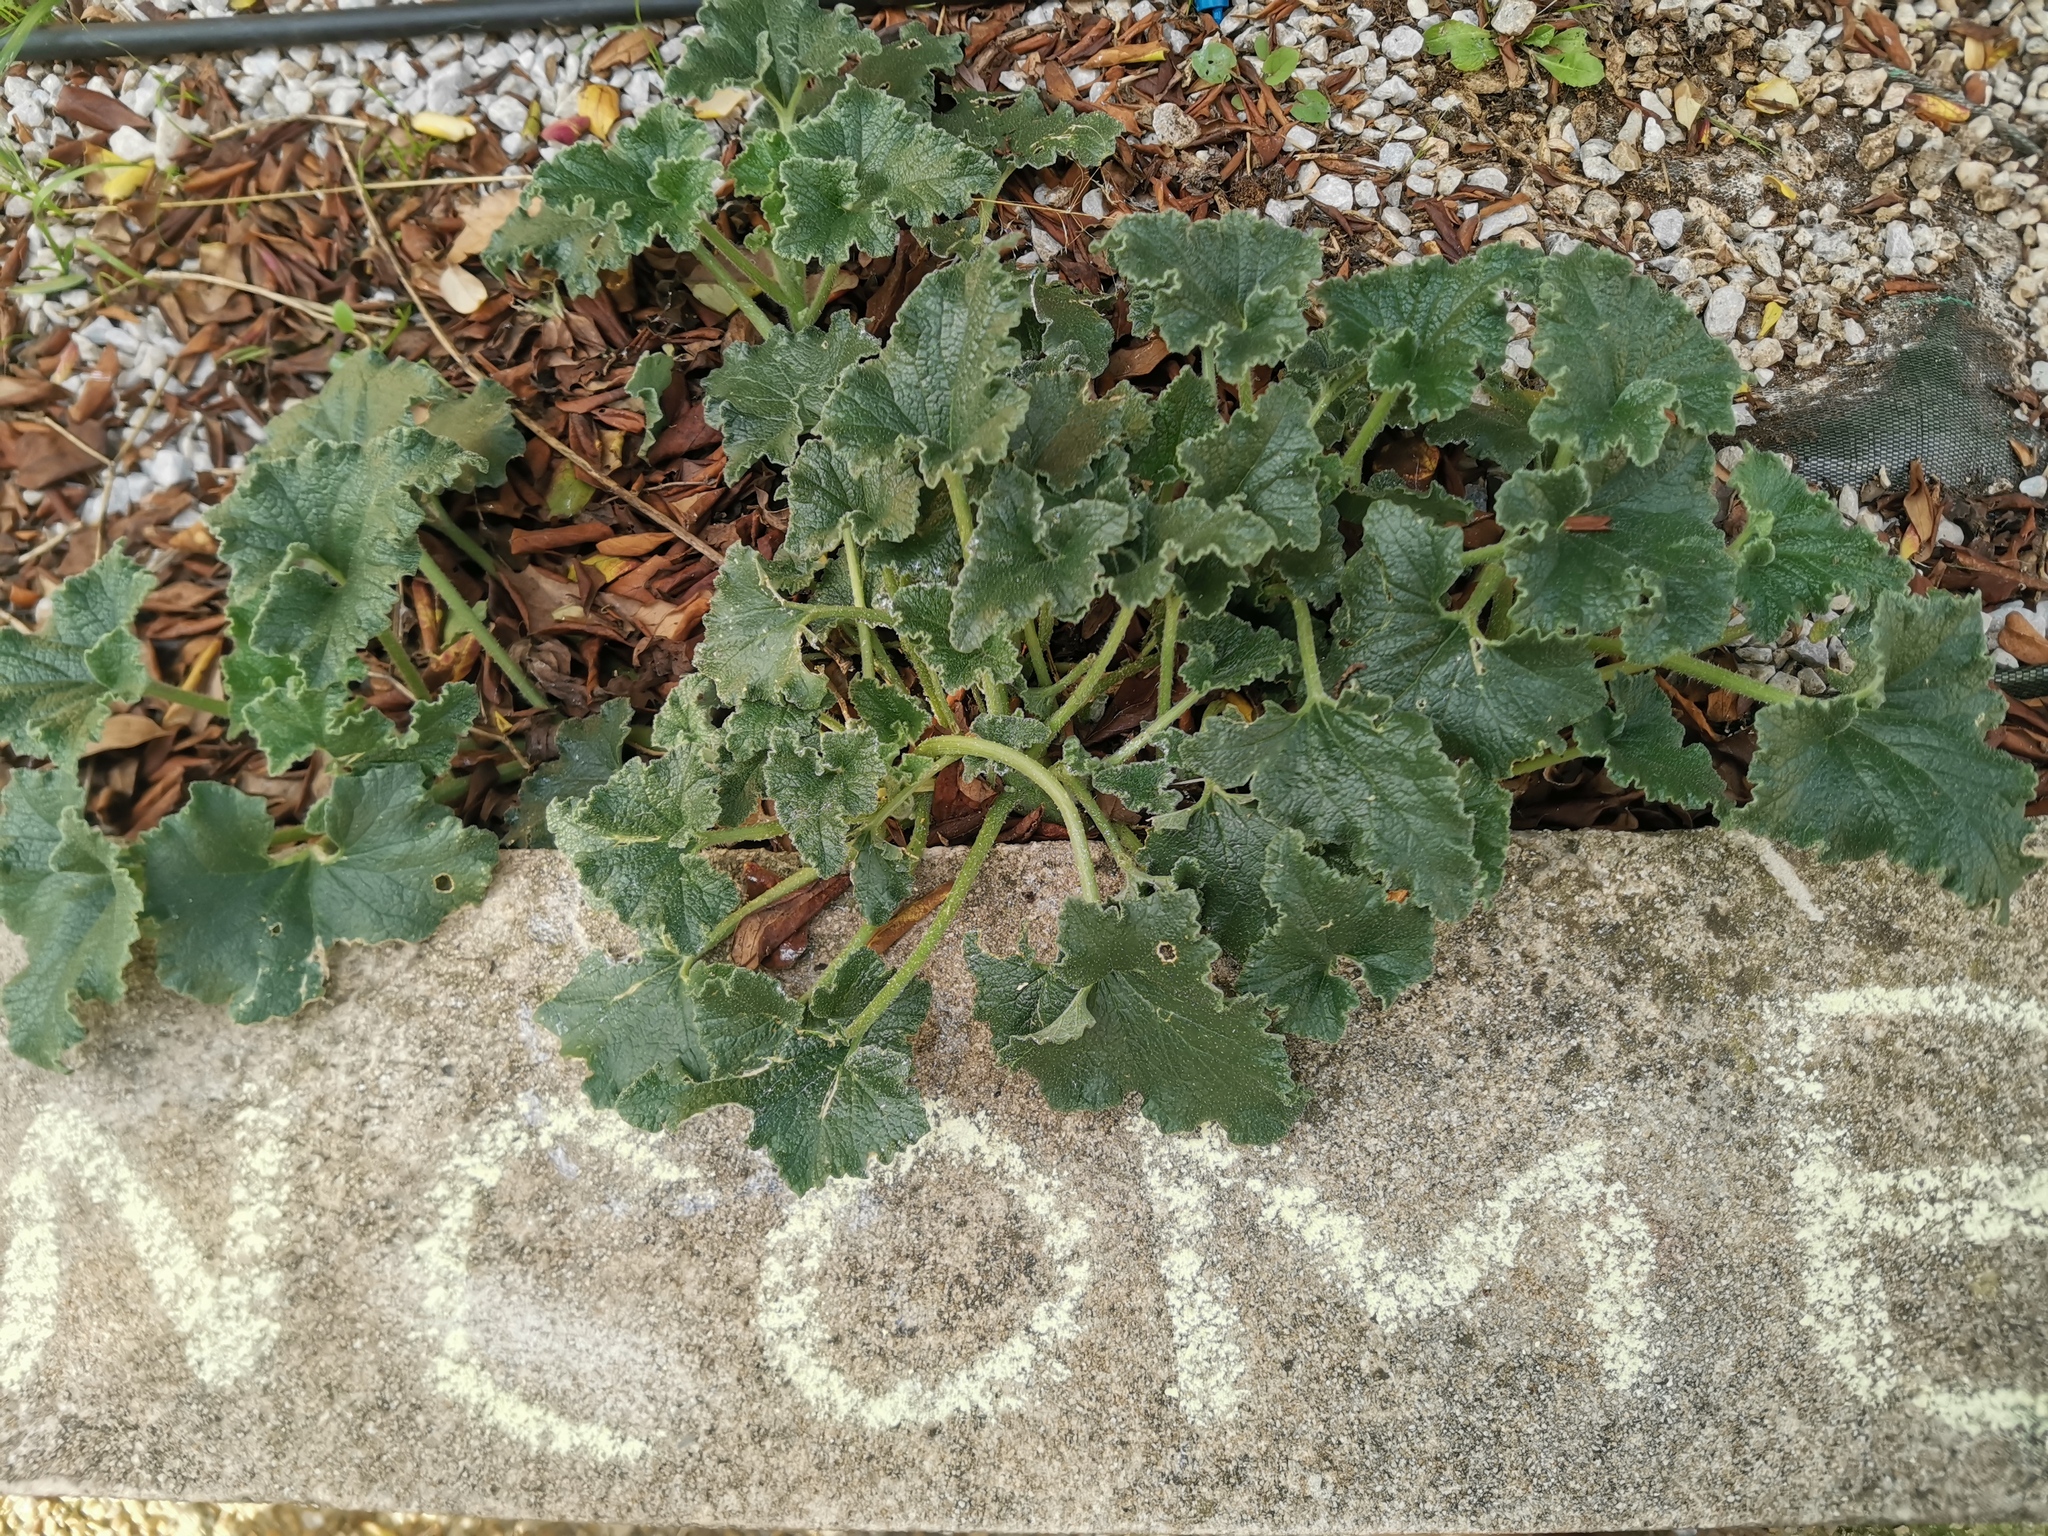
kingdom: Plantae
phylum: Tracheophyta
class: Magnoliopsida
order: Cucurbitales
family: Cucurbitaceae
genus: Ecballium
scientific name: Ecballium elaterium
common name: Squirting cucumber
